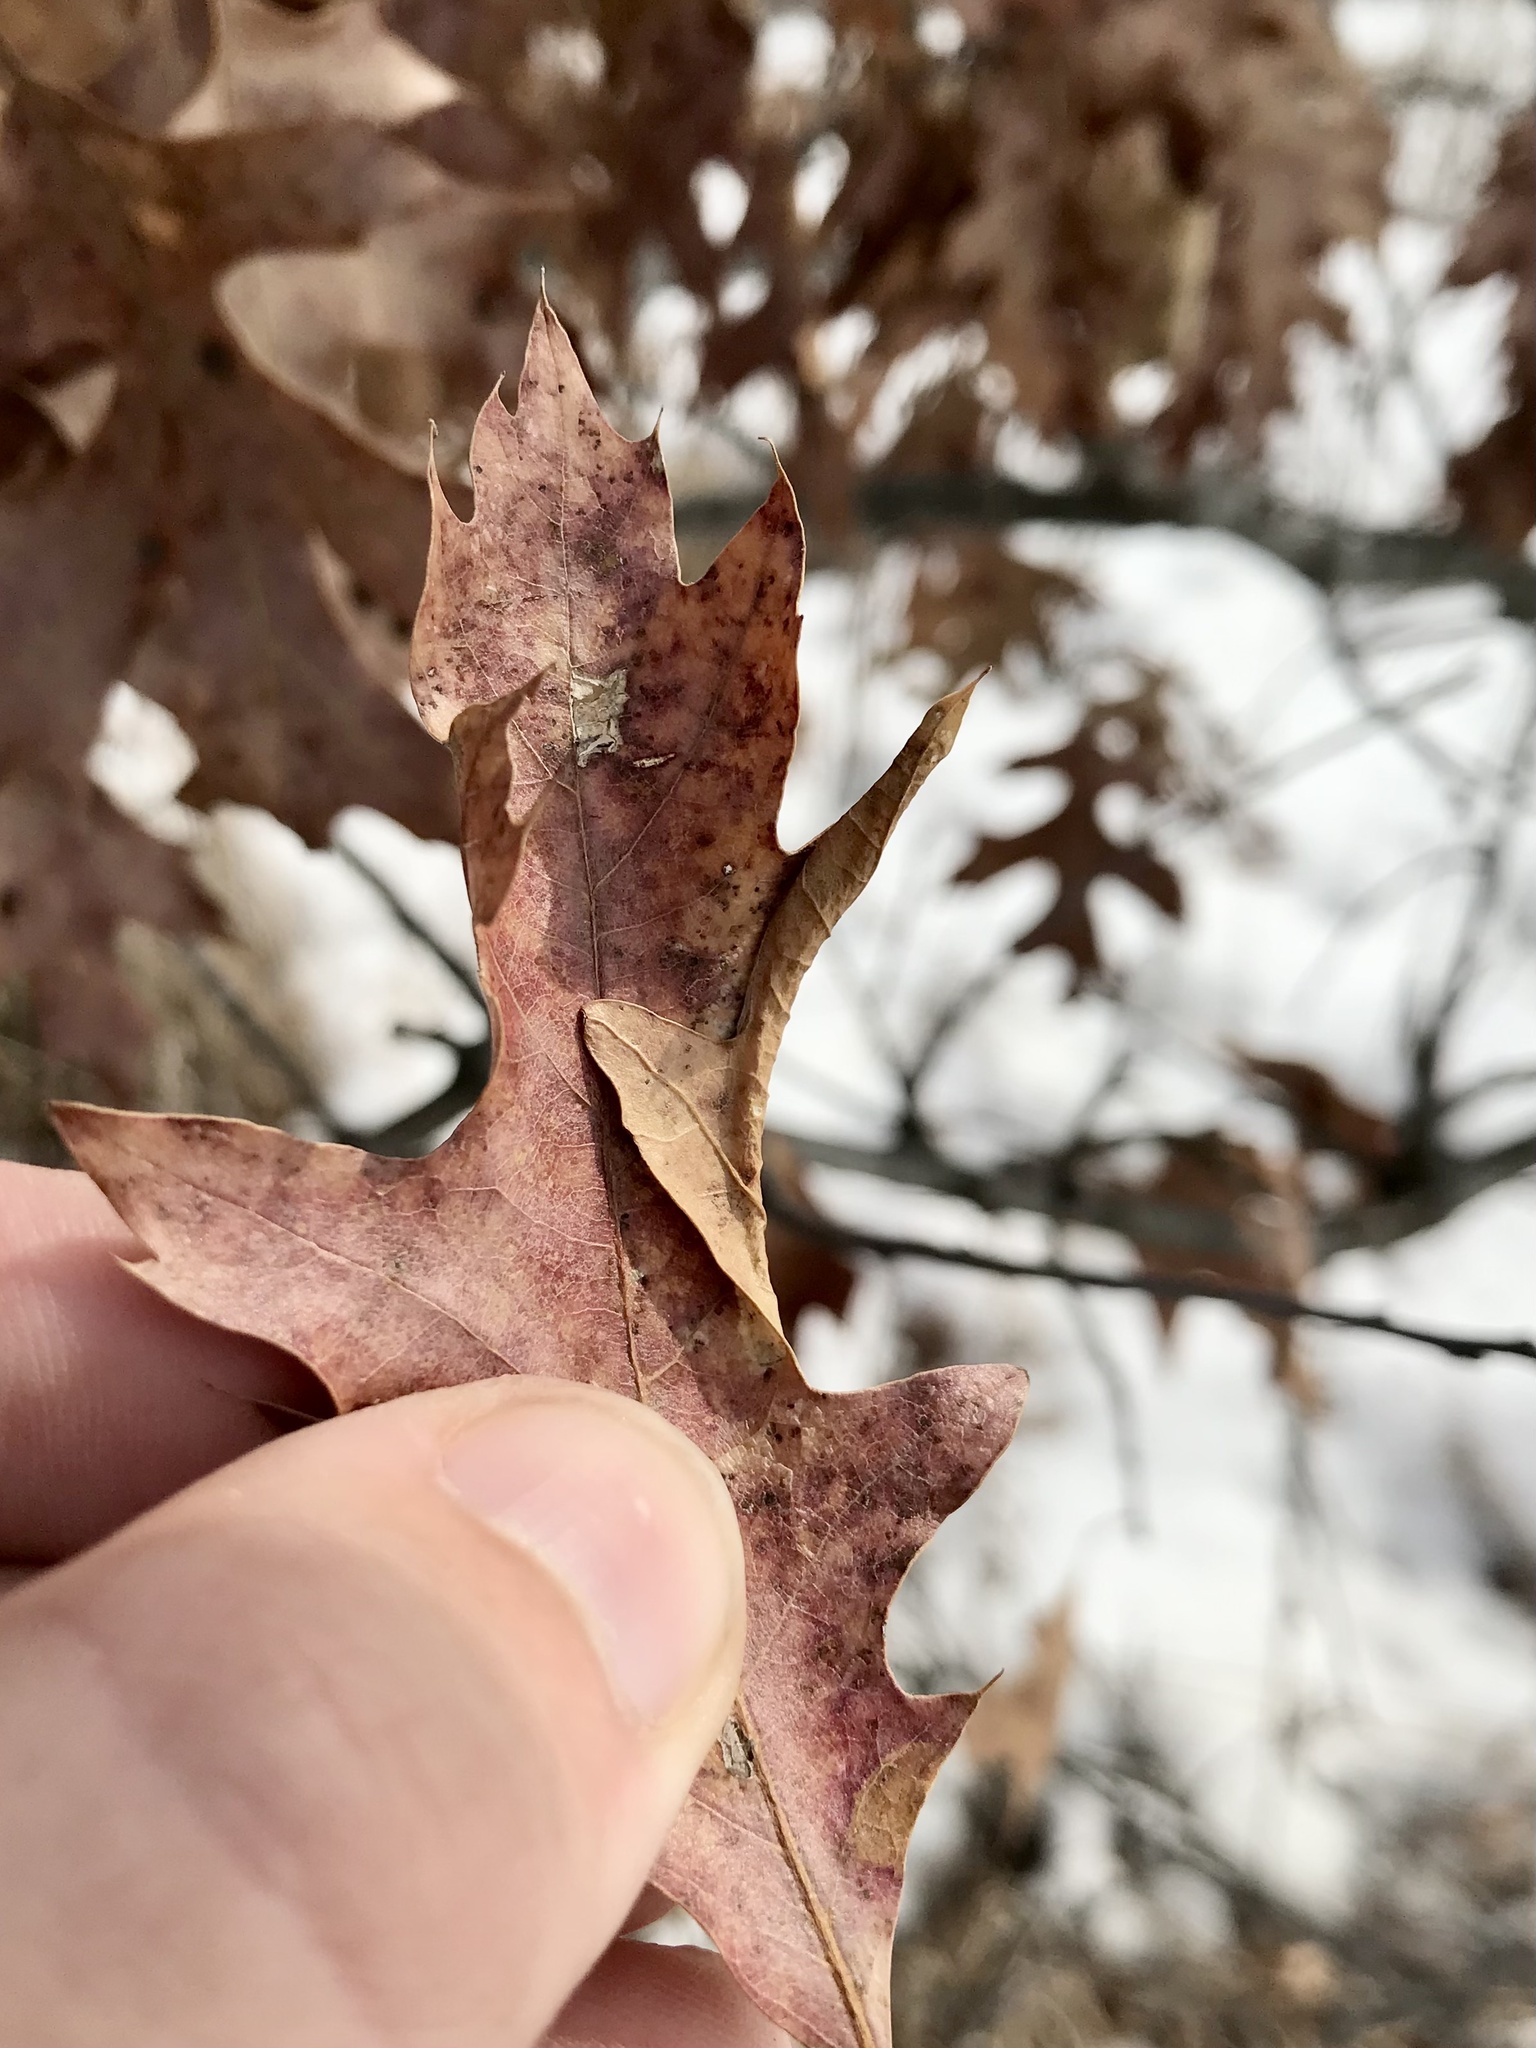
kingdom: Animalia
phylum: Arthropoda
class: Insecta
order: Lepidoptera
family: Tischeriidae
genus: Coptotriche
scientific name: Coptotriche citrinipennella
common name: The golden sweeper
